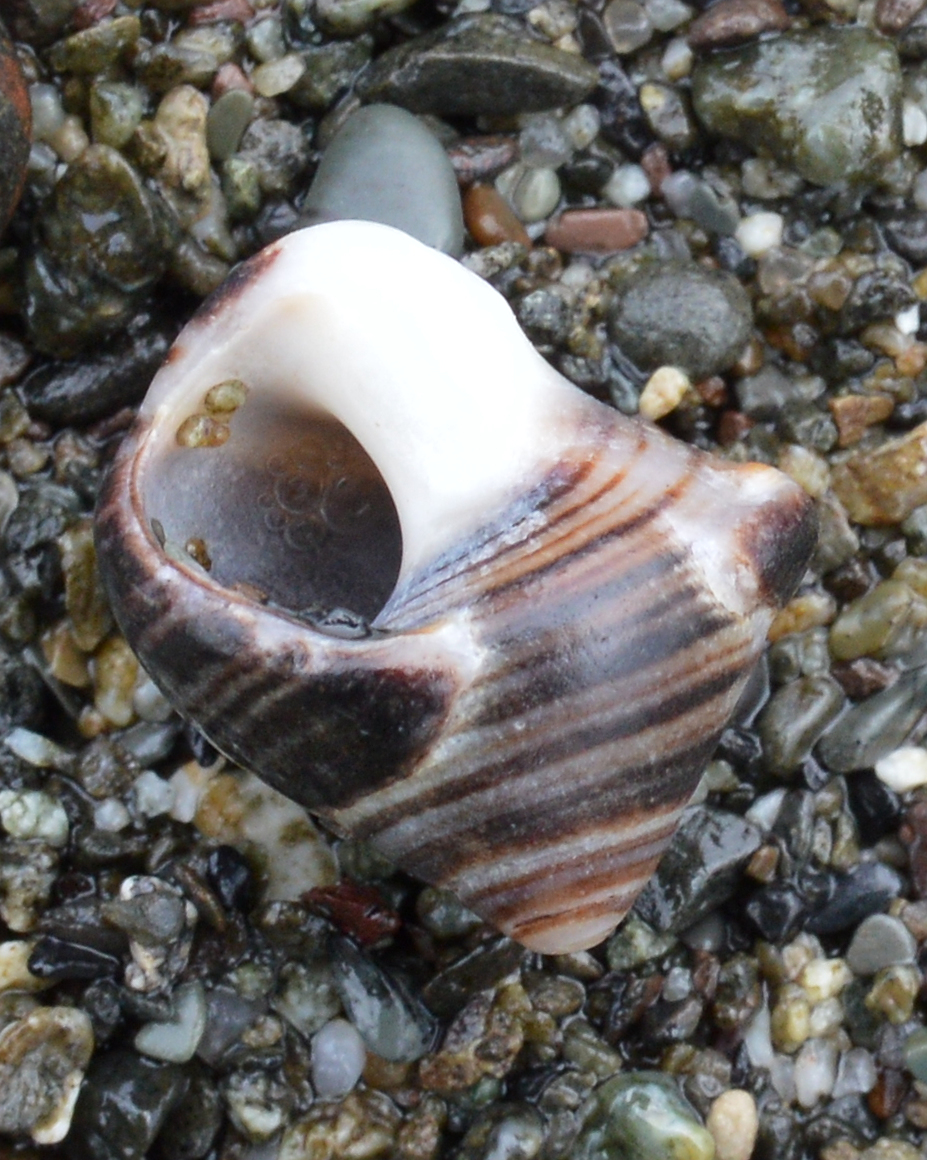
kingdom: Animalia
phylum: Mollusca
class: Gastropoda
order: Littorinimorpha
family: Littorinidae
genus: Littorina
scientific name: Littorina littorea
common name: Common periwinkle
